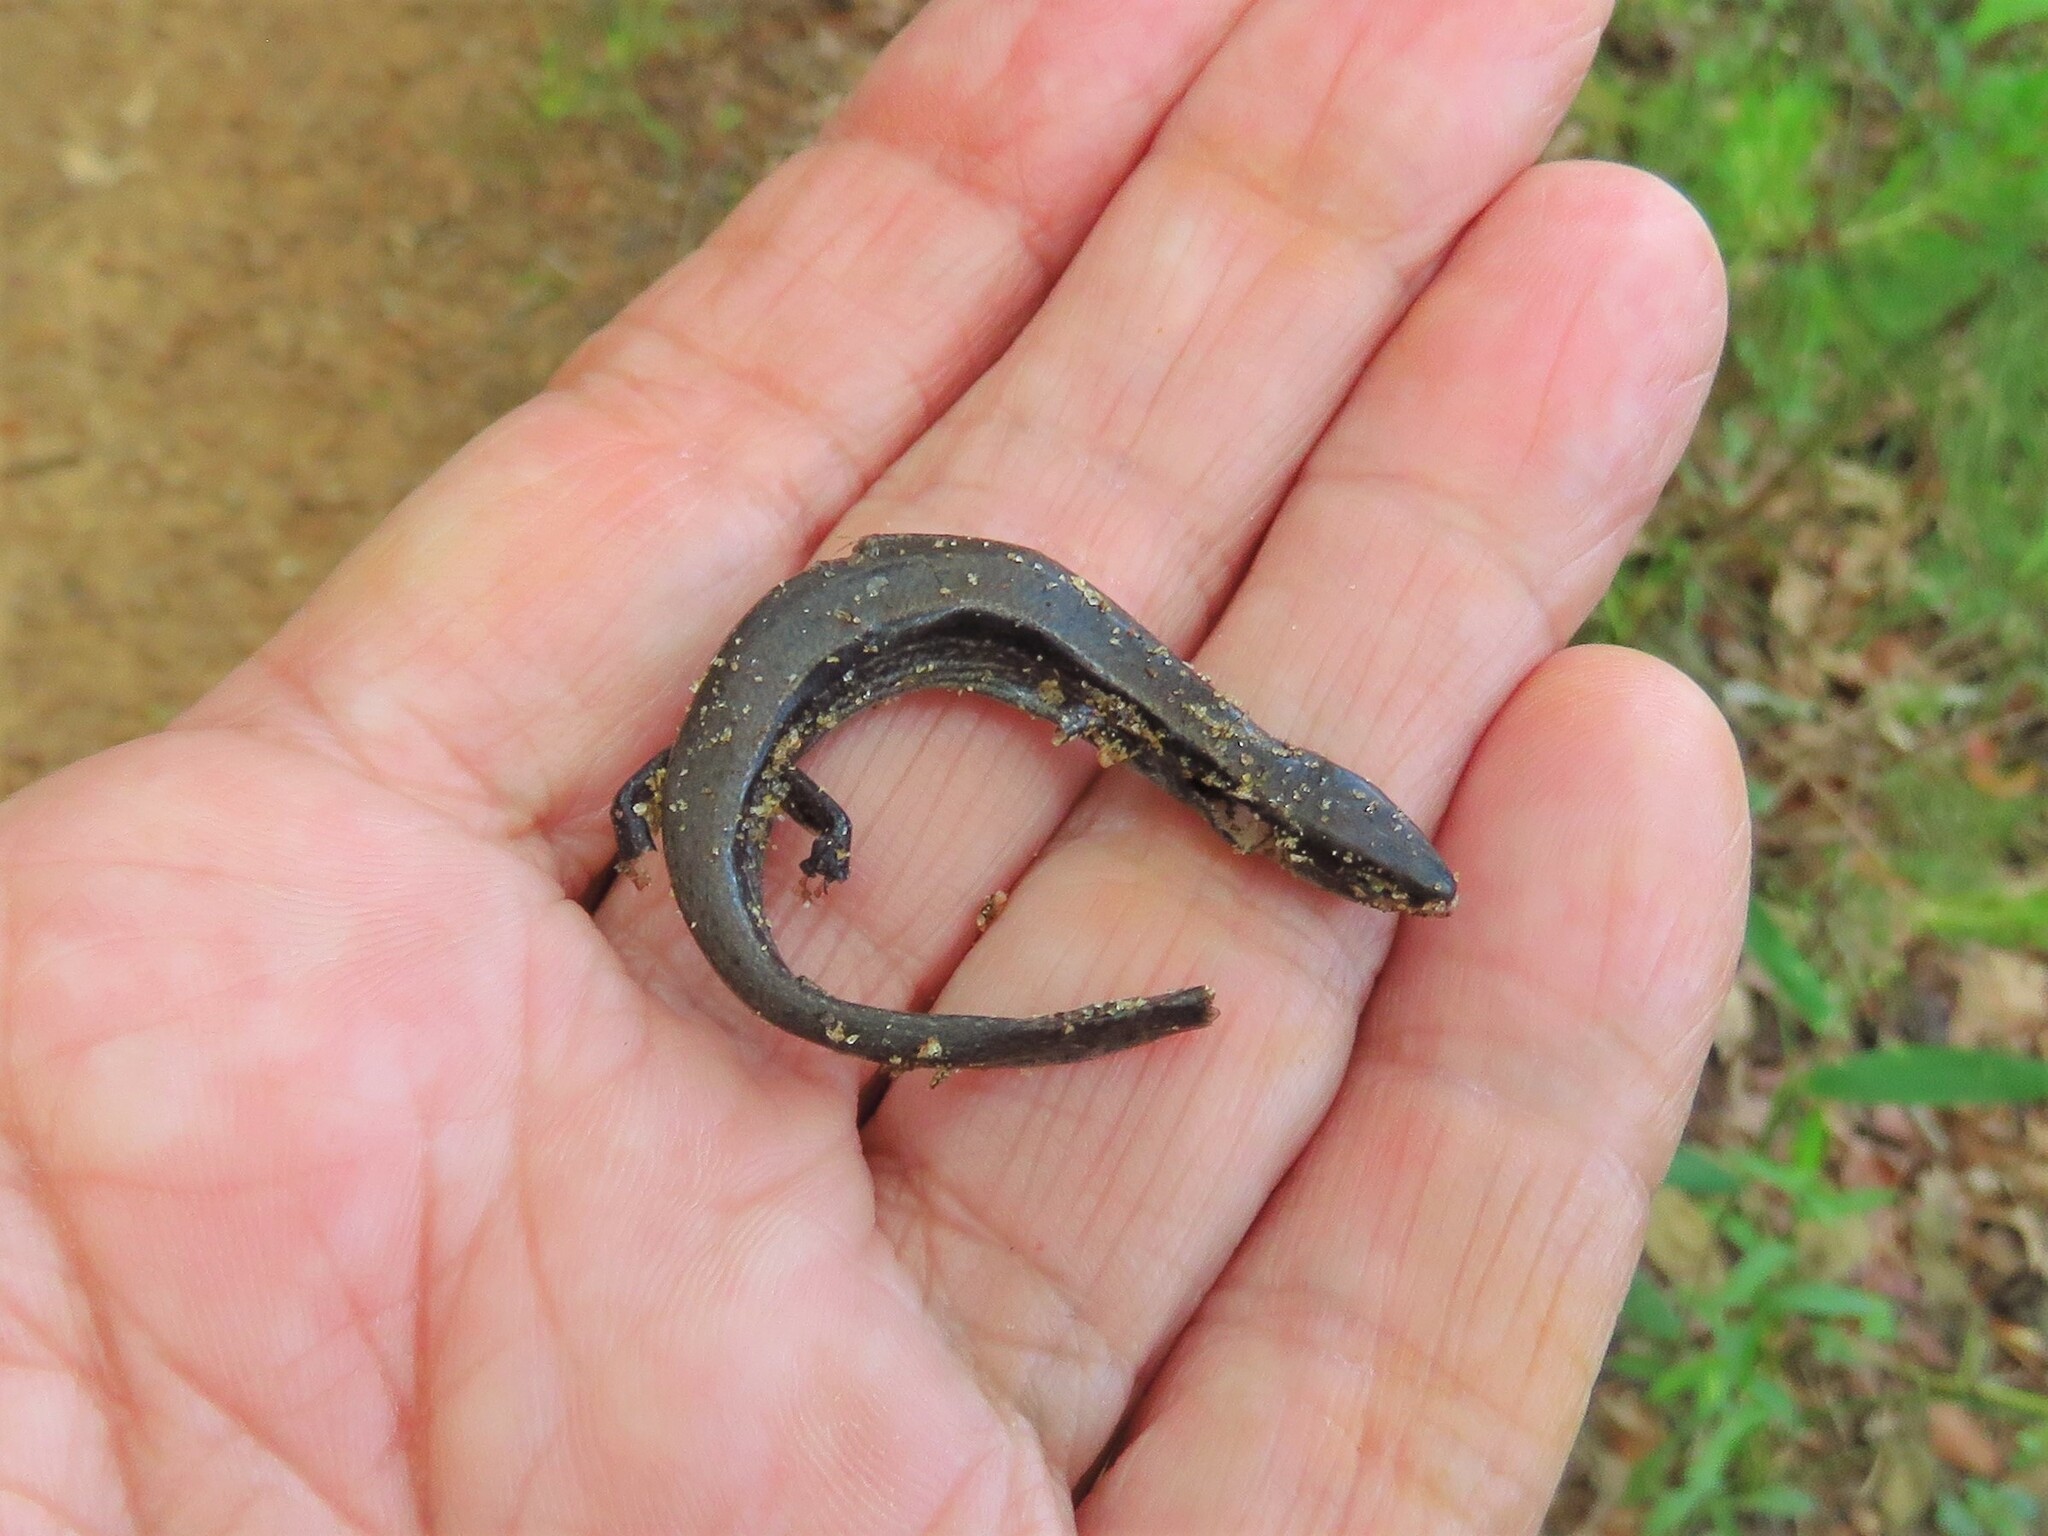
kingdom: Animalia
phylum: Chordata
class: Squamata
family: Scincidae
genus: Scincella
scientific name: Scincella lateralis
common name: Ground skink
